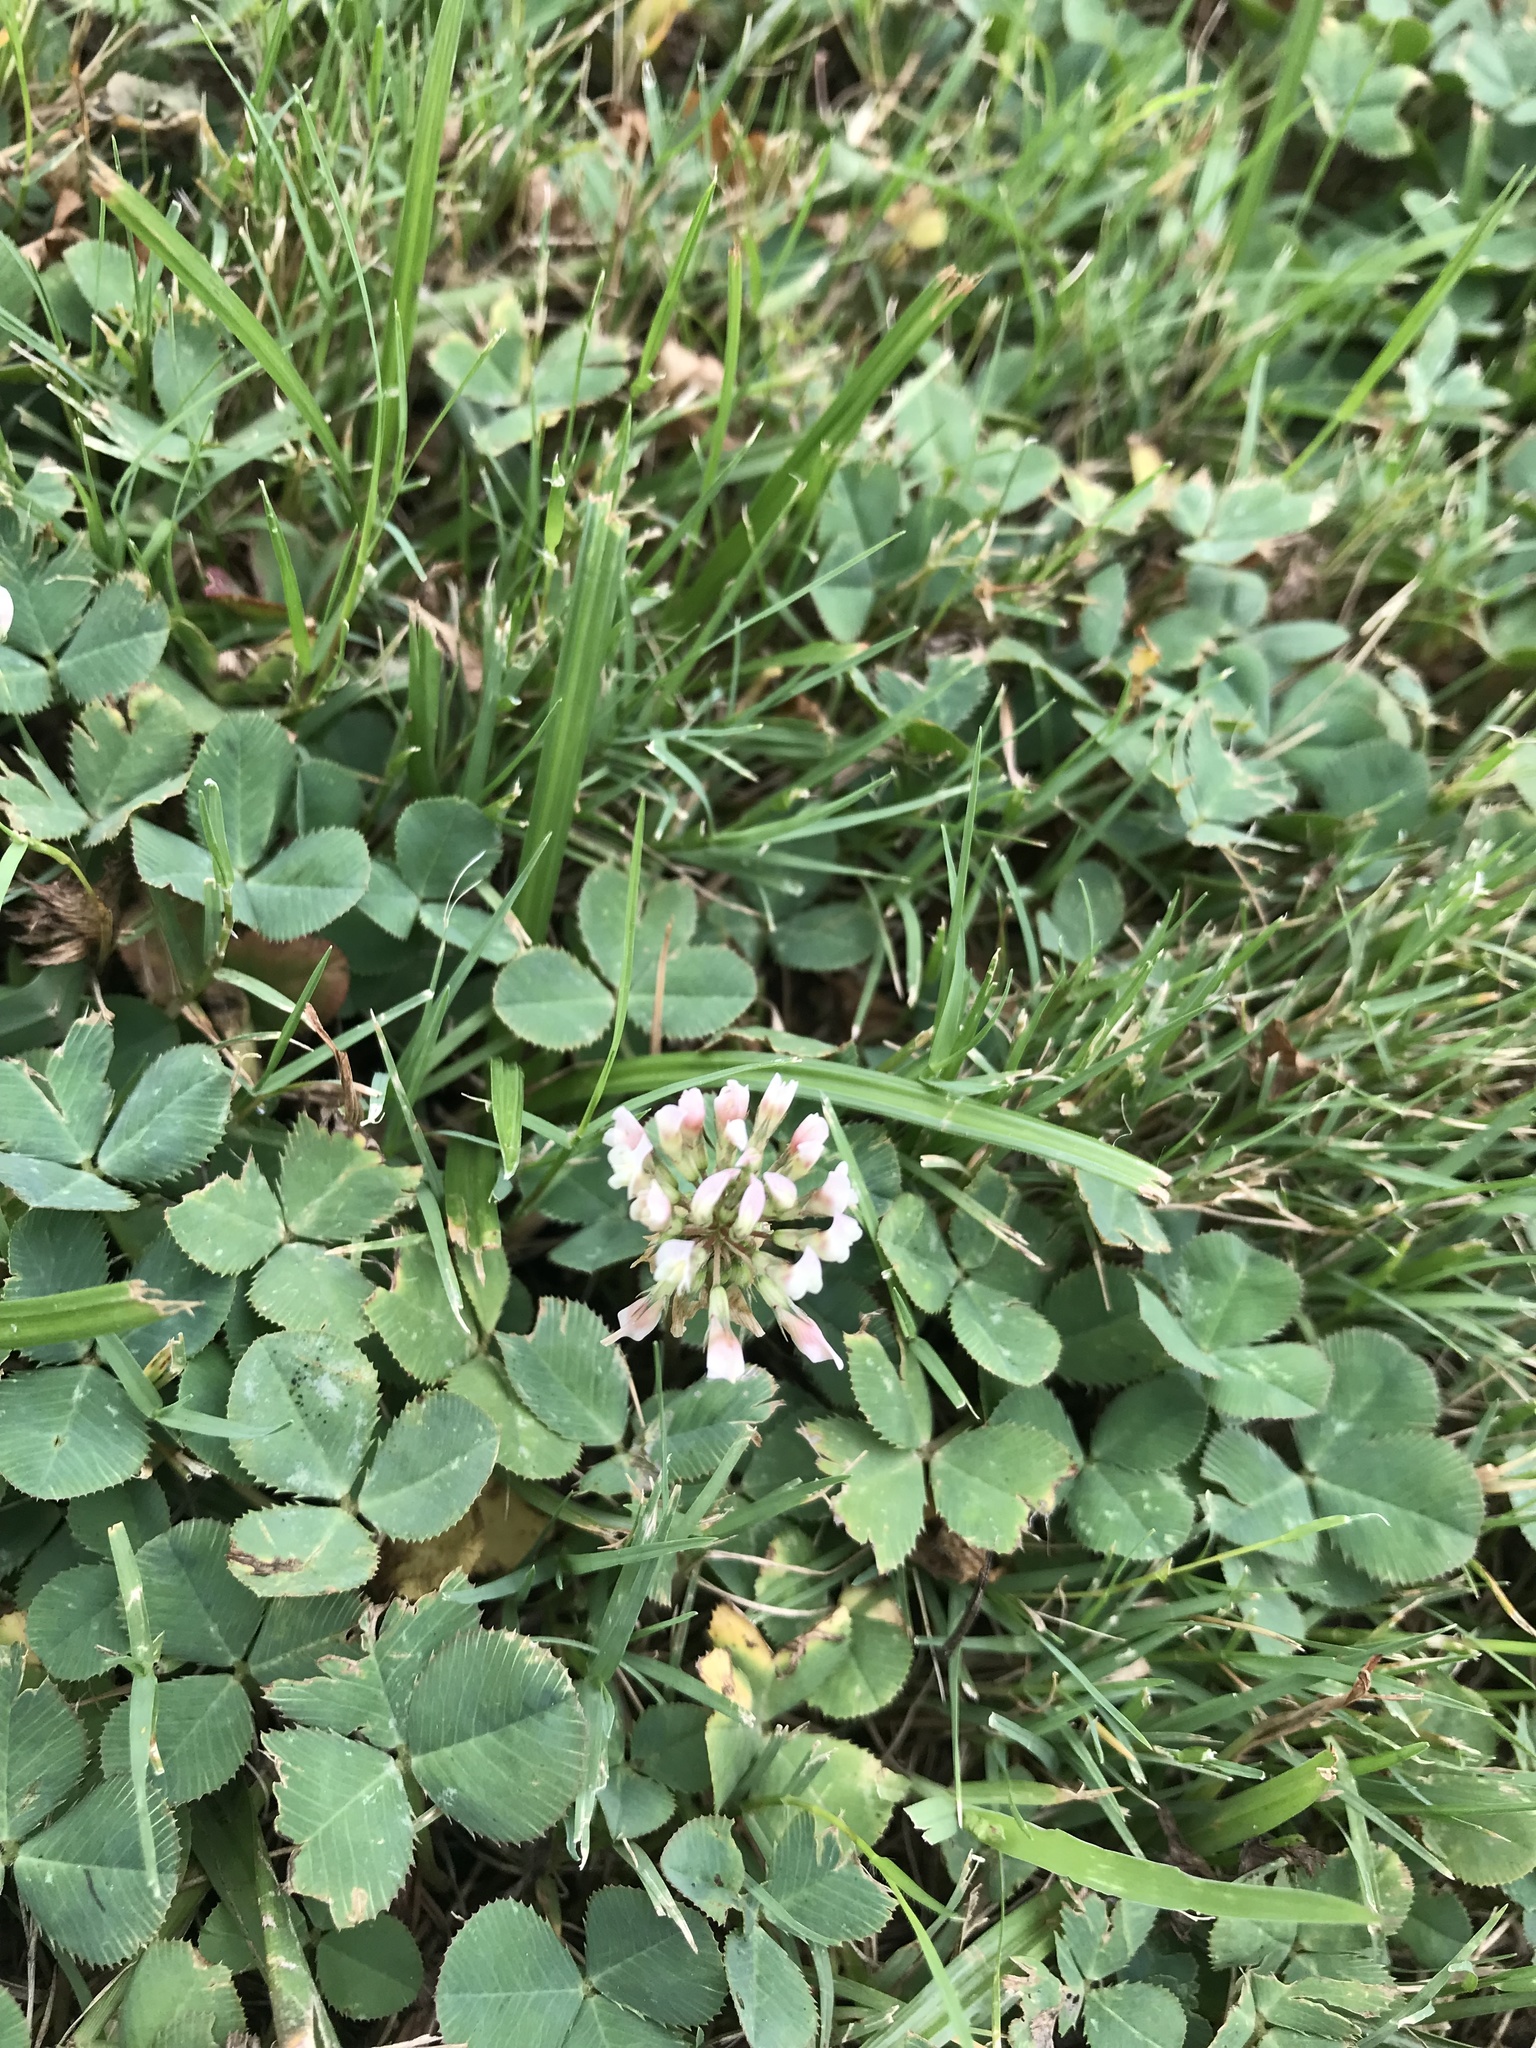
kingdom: Plantae
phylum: Tracheophyta
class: Magnoliopsida
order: Fabales
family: Fabaceae
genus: Trifolium
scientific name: Trifolium repens
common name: White clover
